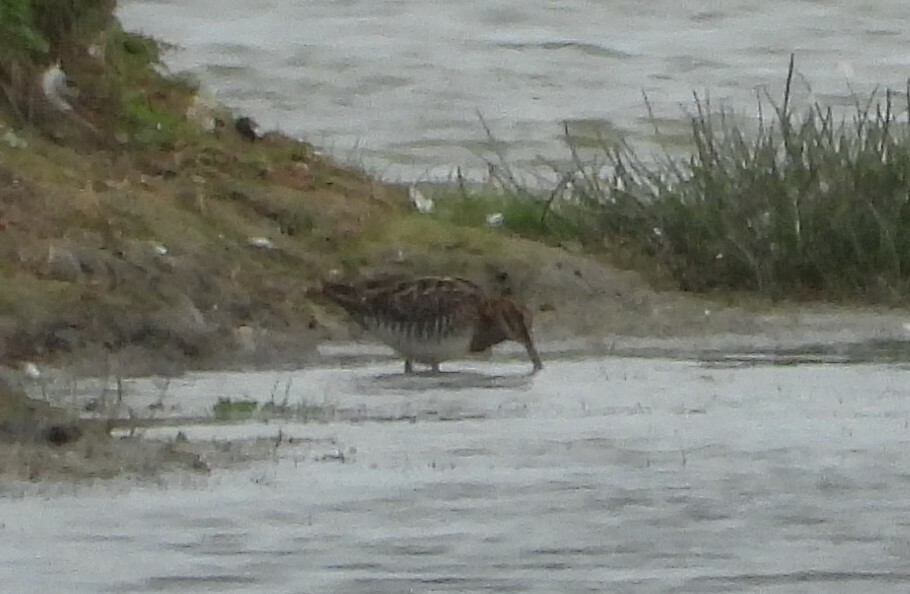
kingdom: Animalia
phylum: Chordata
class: Aves
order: Charadriiformes
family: Scolopacidae
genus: Gallinago
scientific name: Gallinago gallinago
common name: Common snipe
